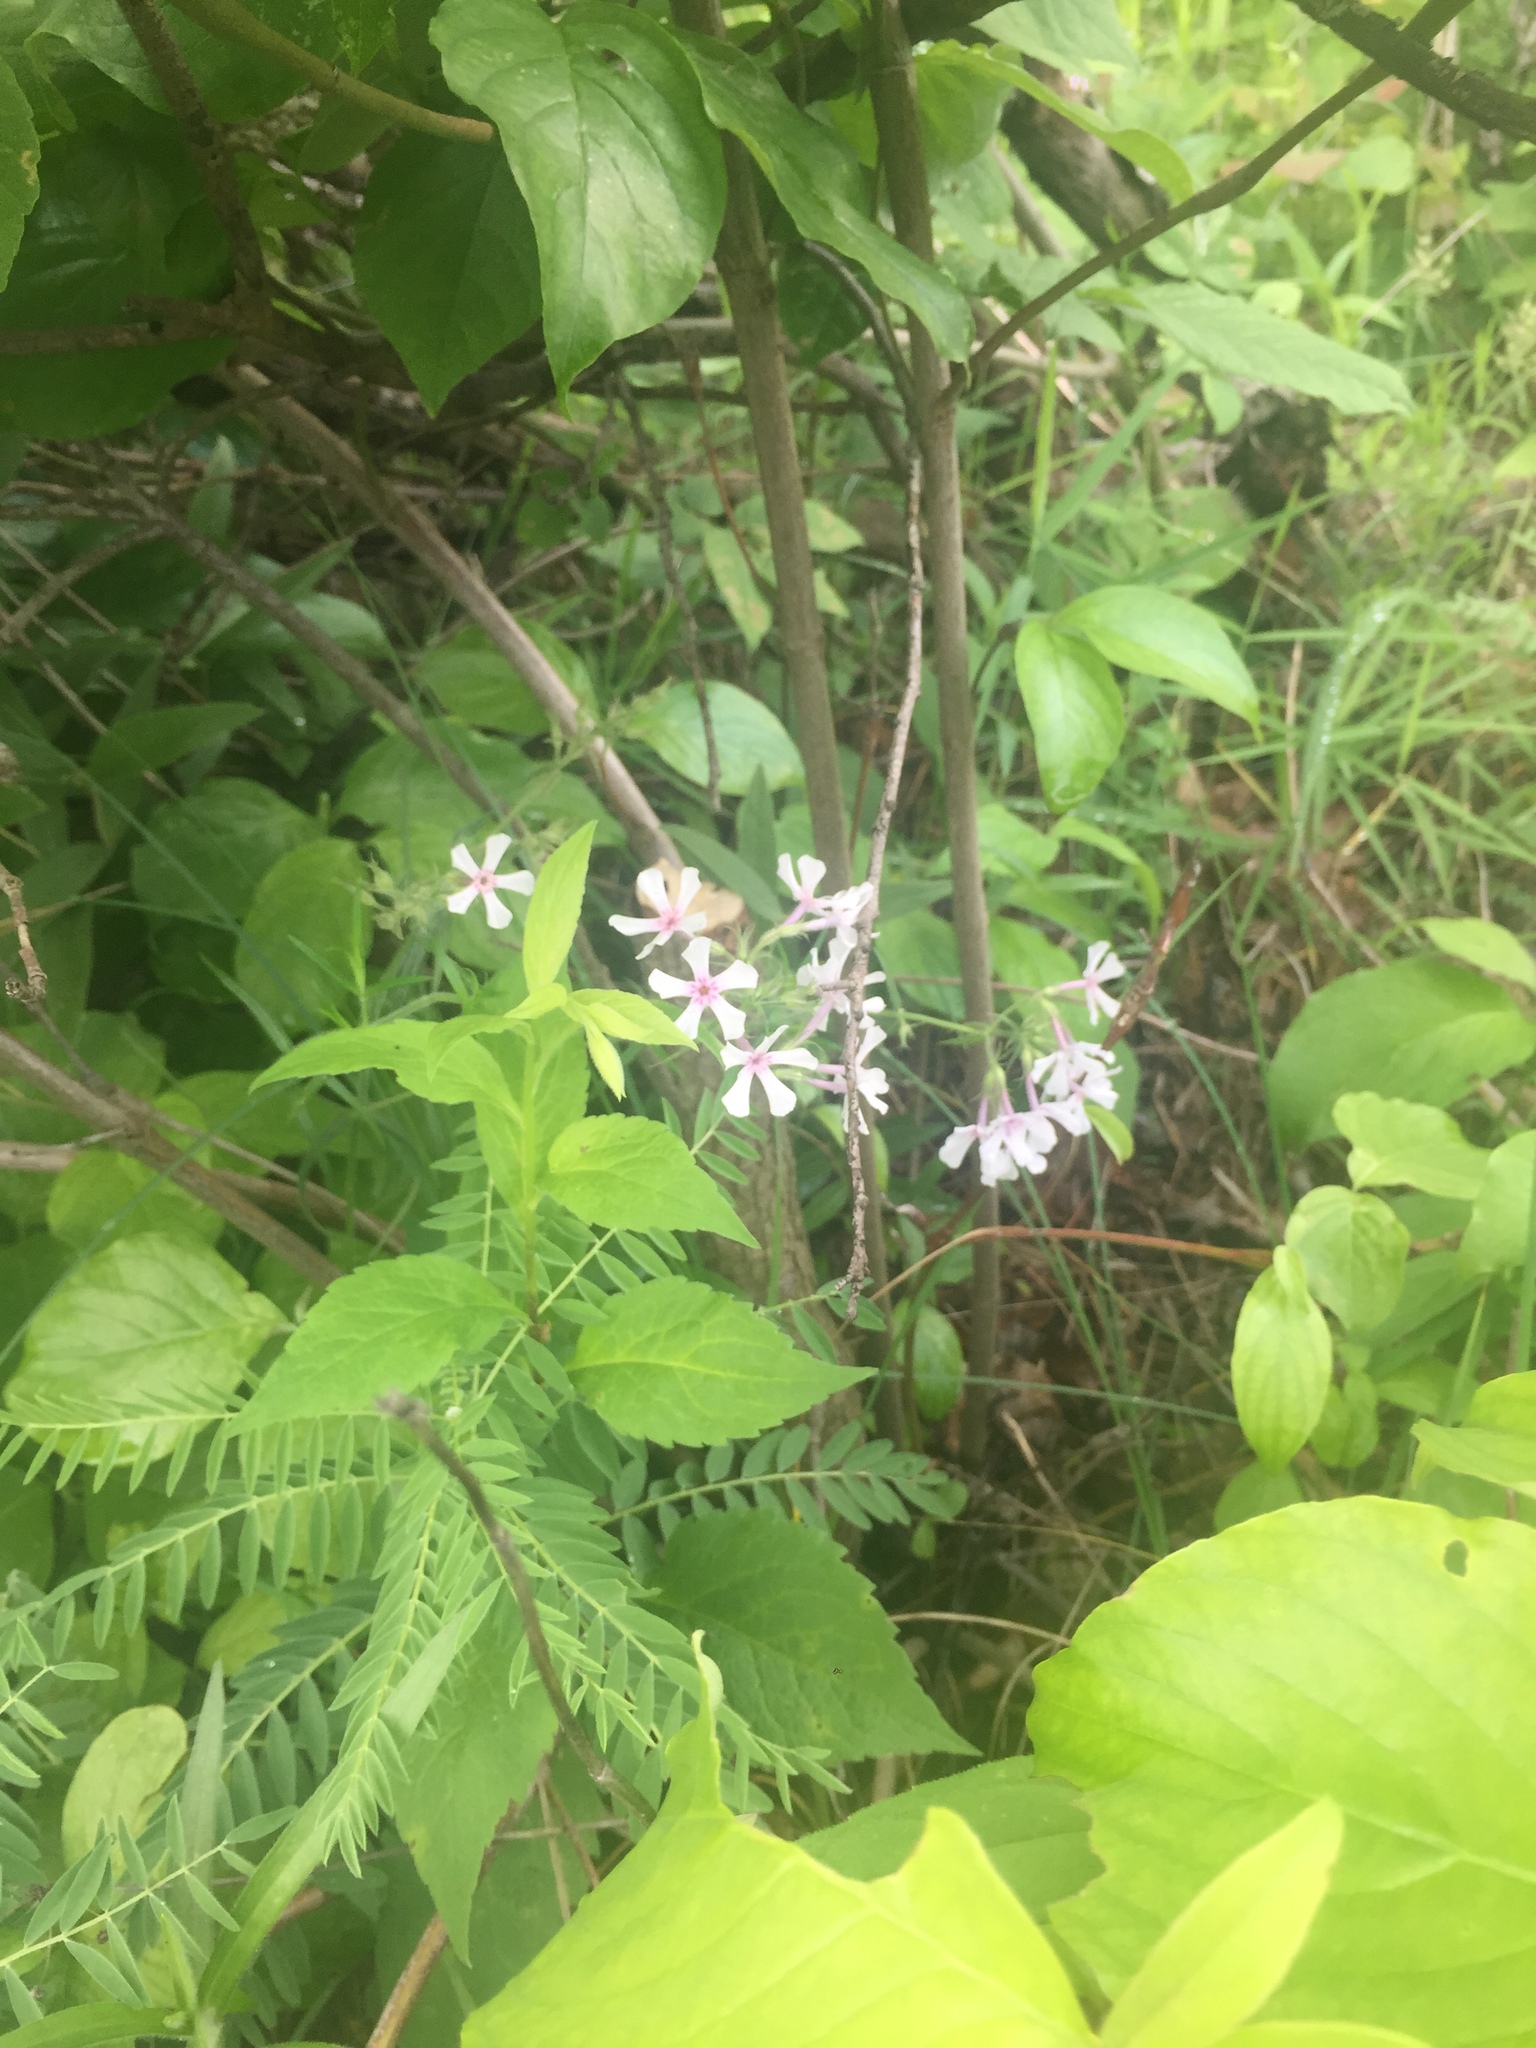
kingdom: Plantae
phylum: Tracheophyta
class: Magnoliopsida
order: Ericales
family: Polemoniaceae
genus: Phlox
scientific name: Phlox pilosa
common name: Prairie phlox
